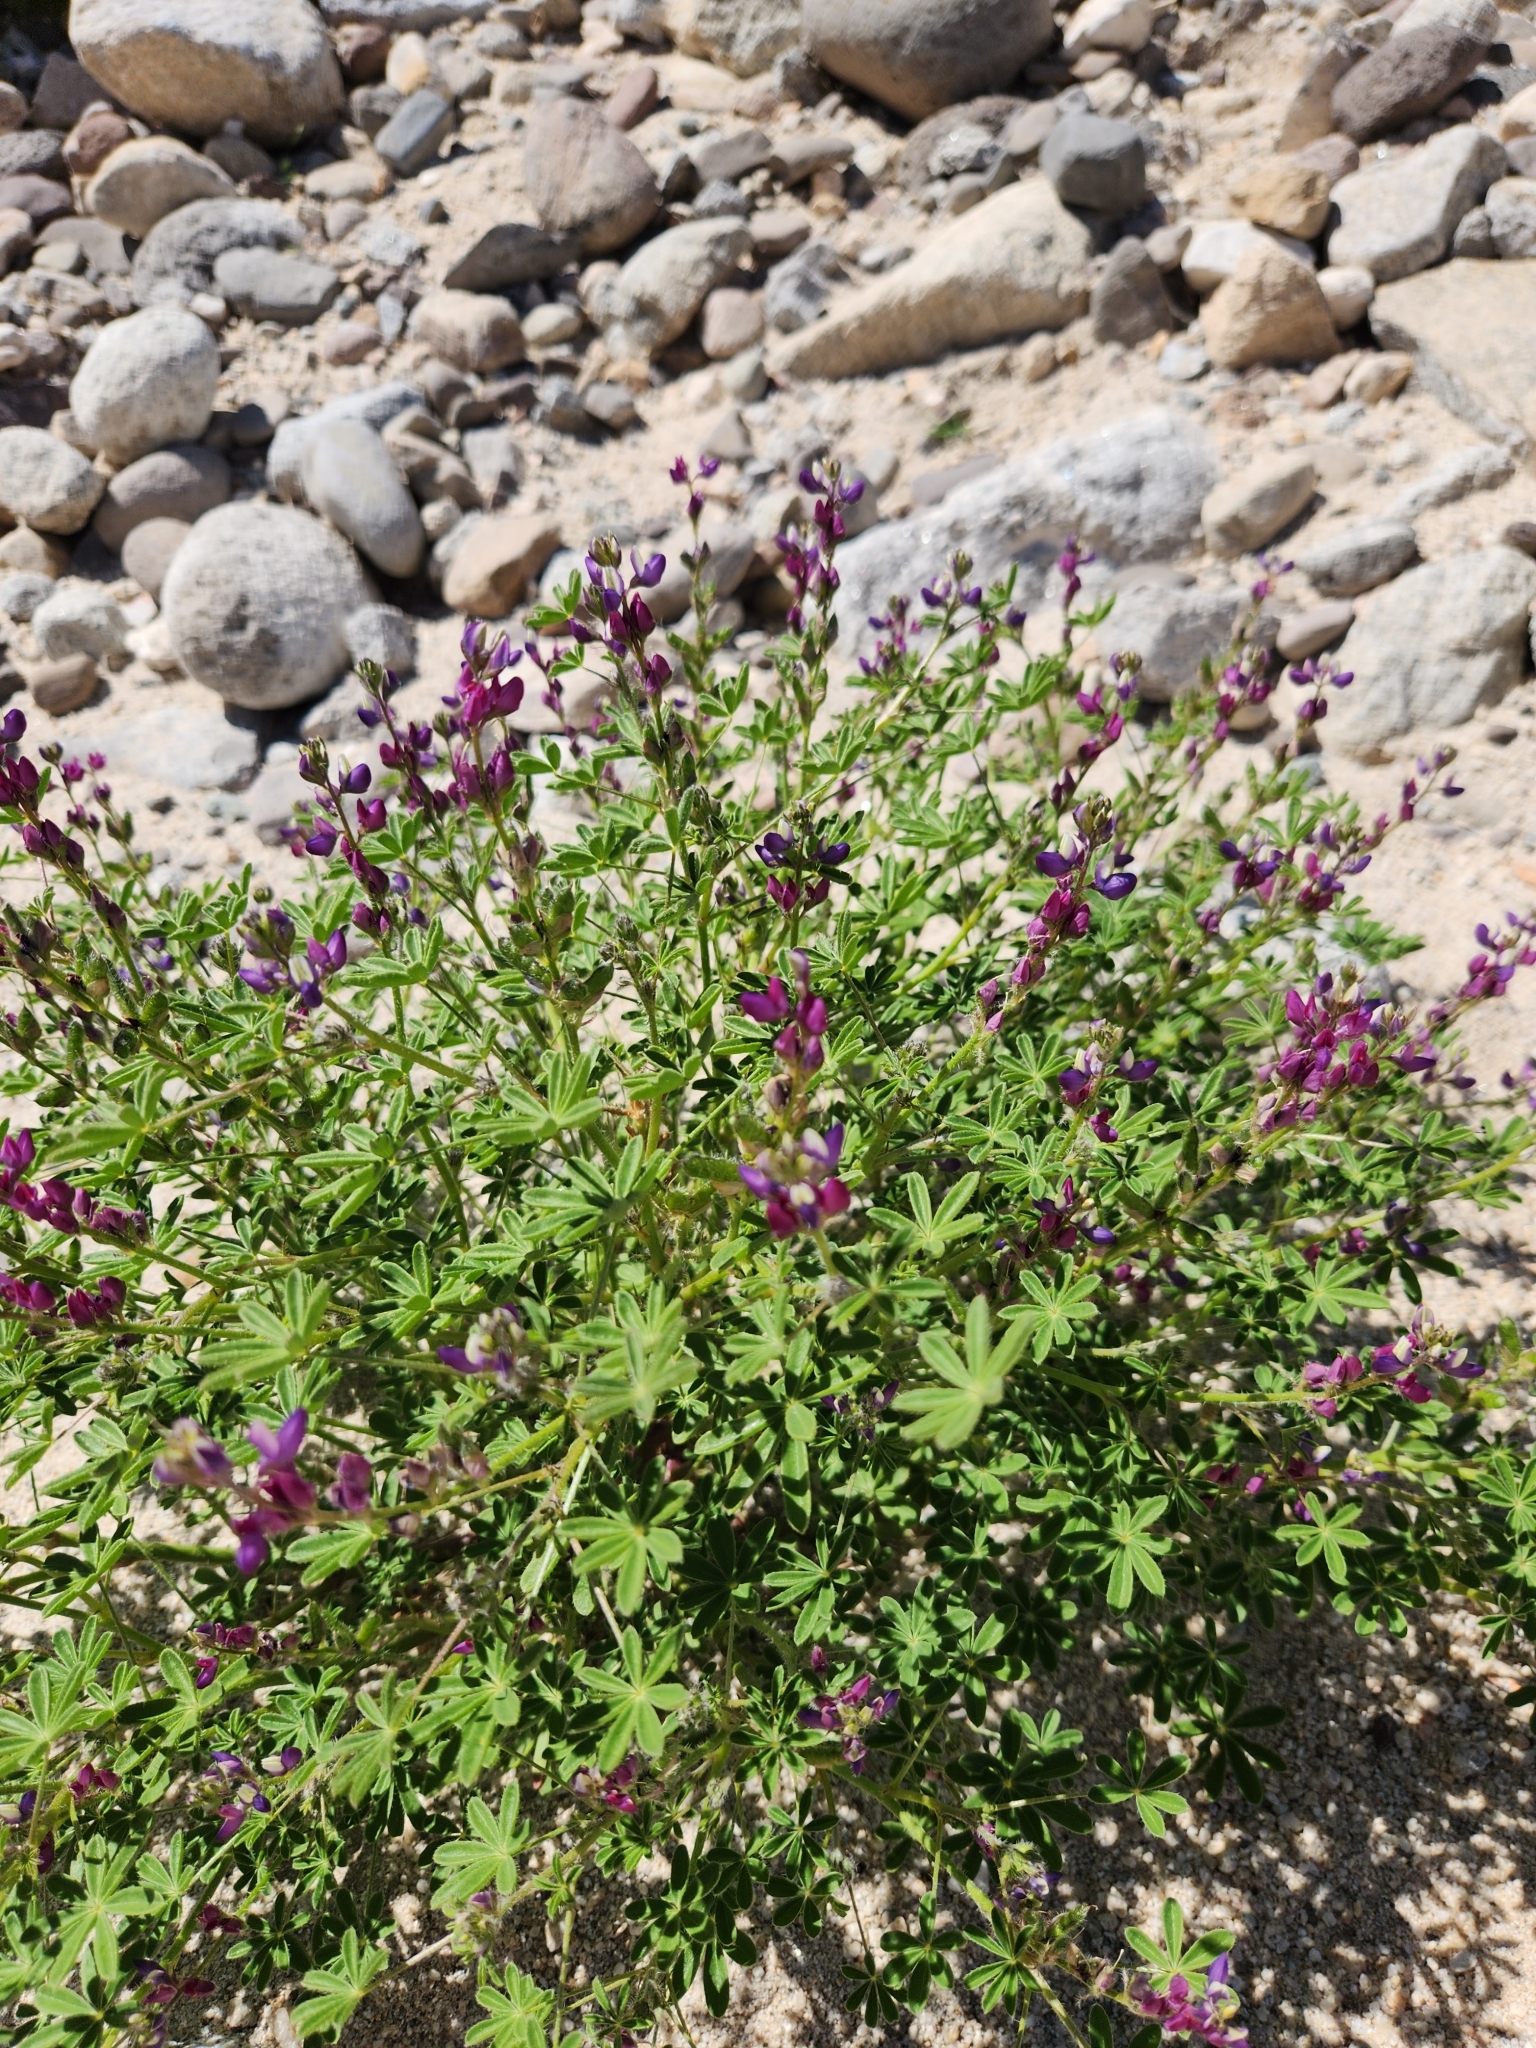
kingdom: Plantae
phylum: Tracheophyta
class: Magnoliopsida
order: Fabales
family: Fabaceae
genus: Lupinus
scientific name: Lupinus sparsiflorus
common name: Coulter's lupine
